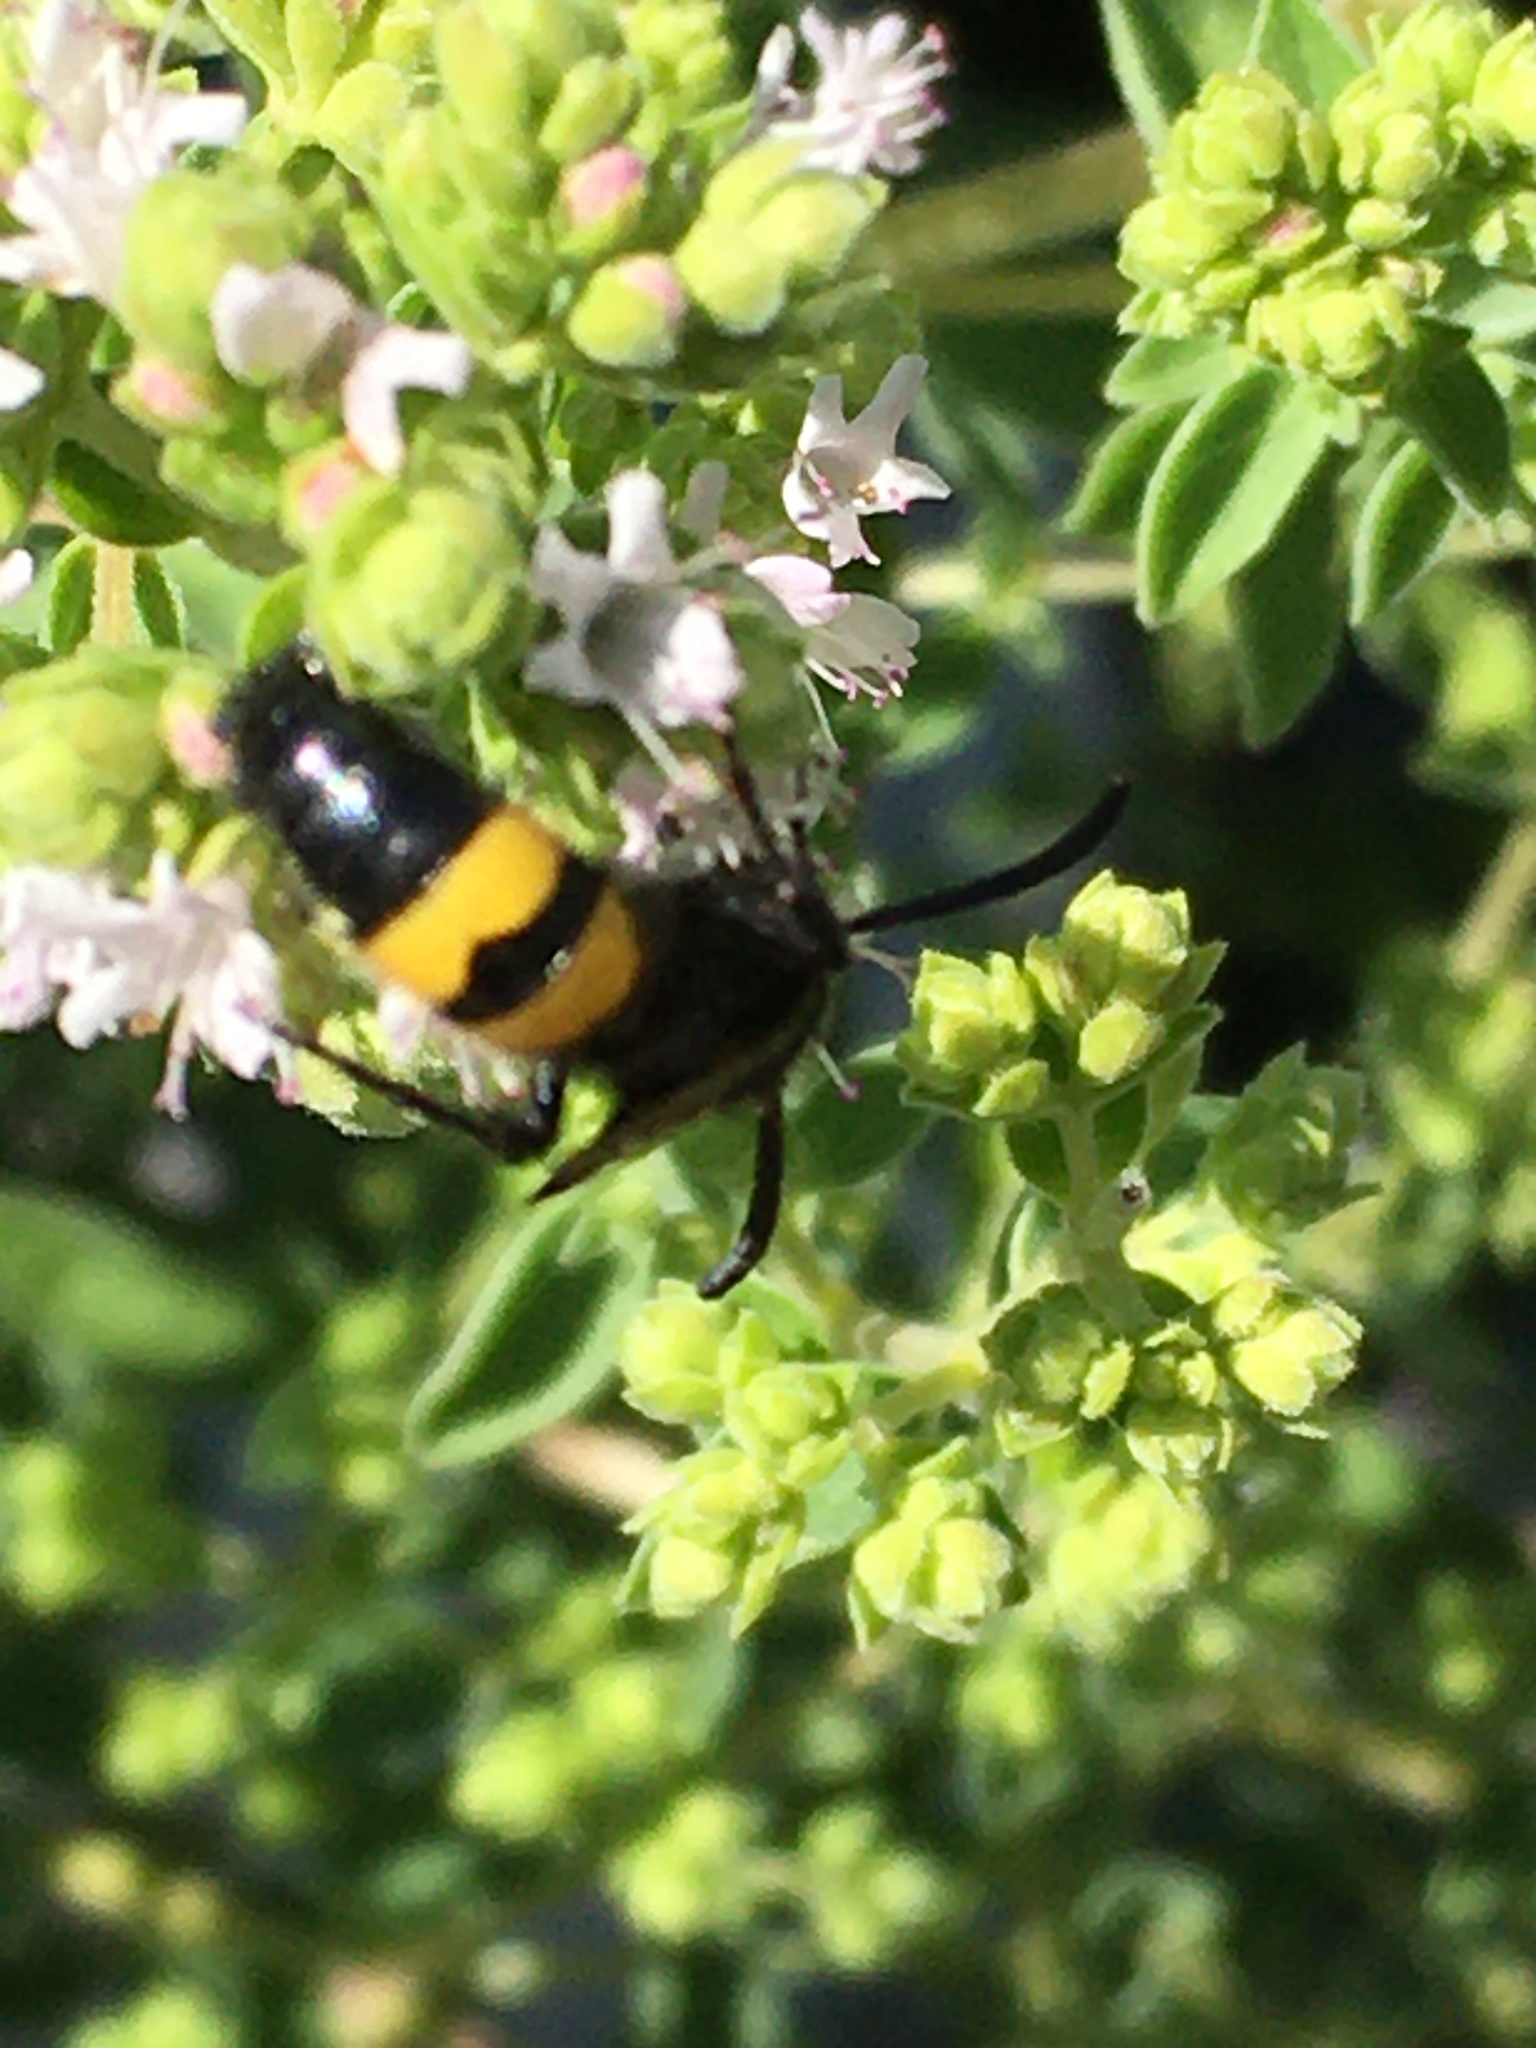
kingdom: Animalia
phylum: Arthropoda
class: Insecta
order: Hymenoptera
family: Scoliidae
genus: Scolia
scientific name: Scolia hirta
